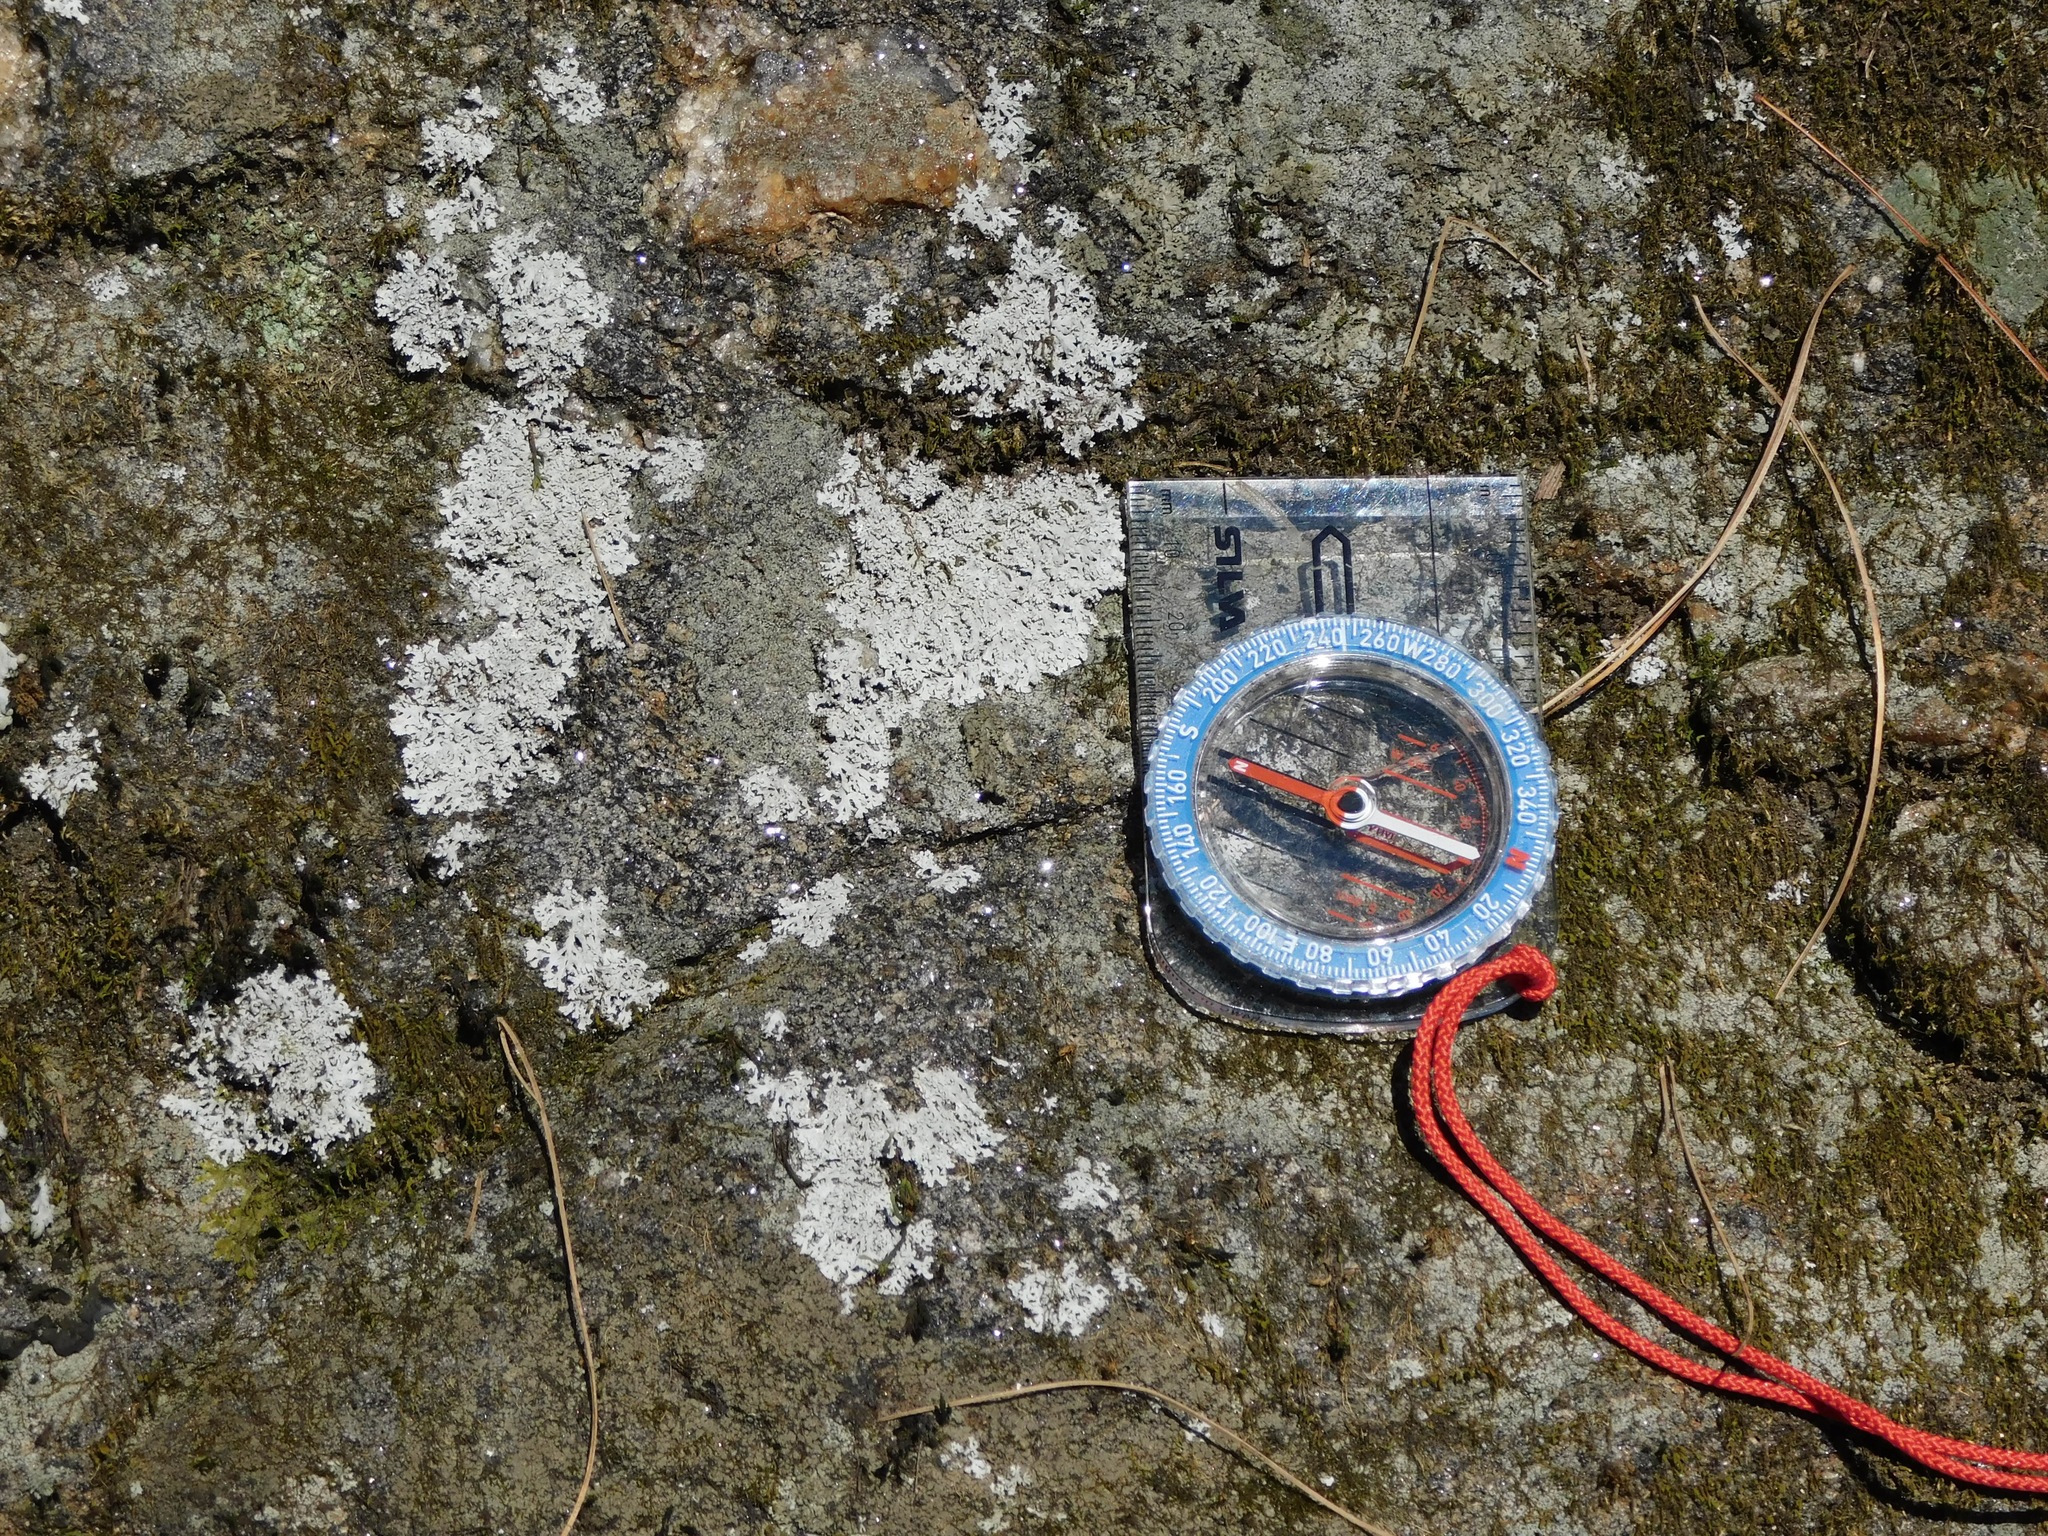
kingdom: Fungi
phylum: Ascomycota
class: Lecanoromycetes
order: Caliciales
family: Physciaceae
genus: Physcia
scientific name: Physcia thomsoniana
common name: Thomson's rosette lichen
